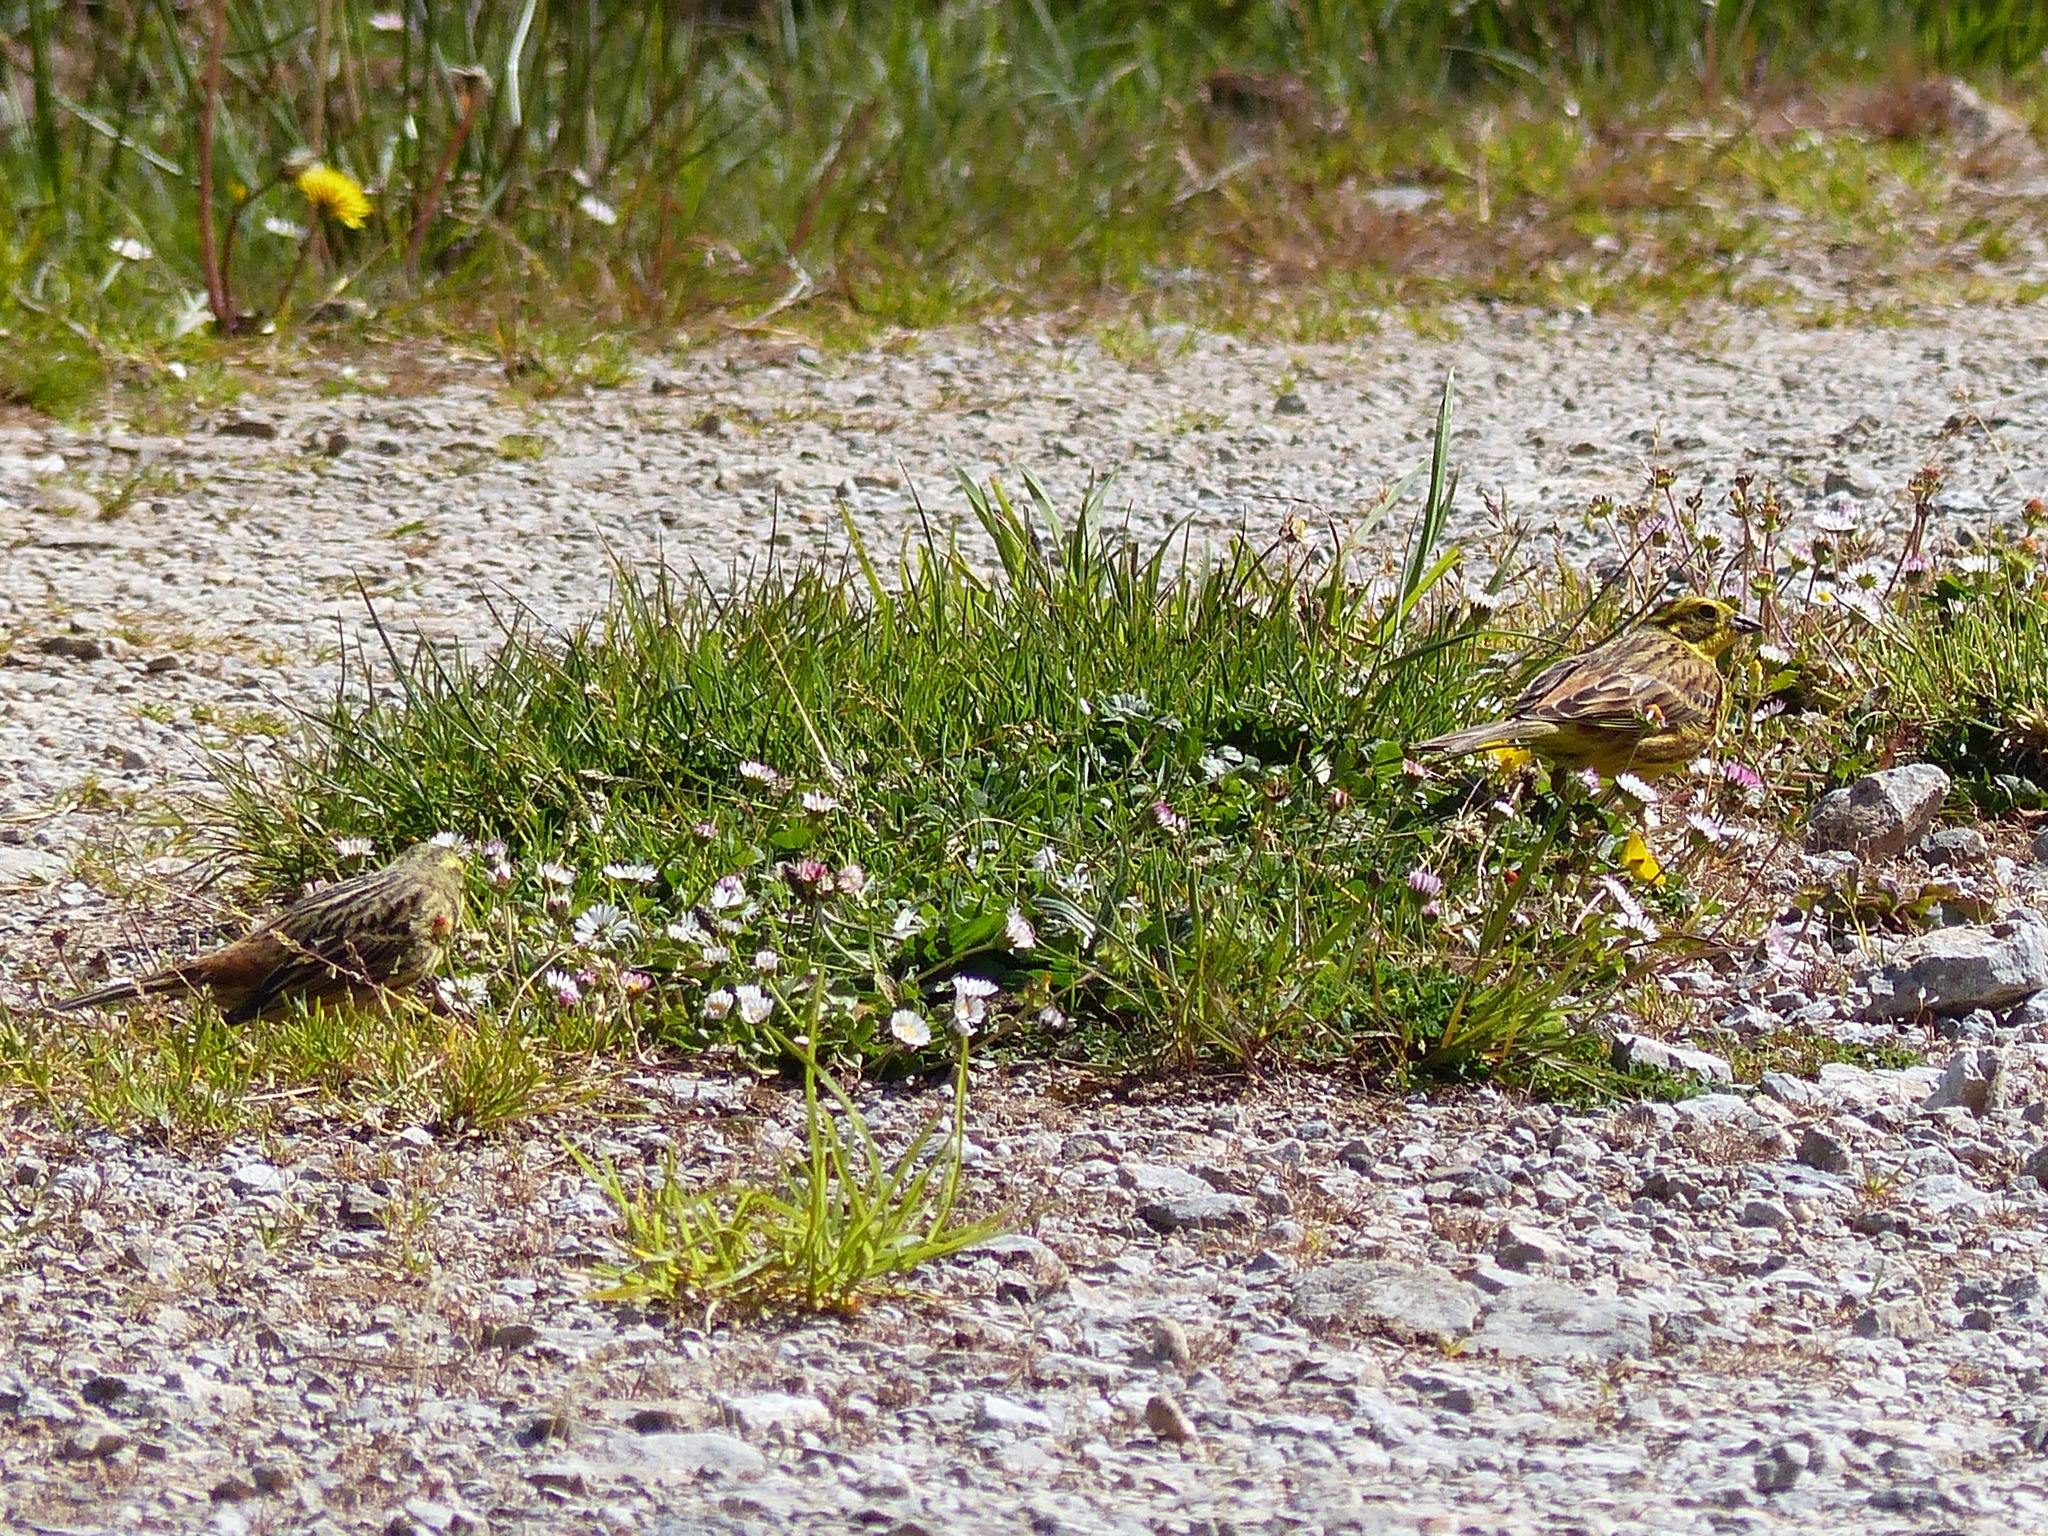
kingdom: Animalia
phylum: Chordata
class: Aves
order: Passeriformes
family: Emberizidae
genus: Emberiza
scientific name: Emberiza citrinella
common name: Yellowhammer
